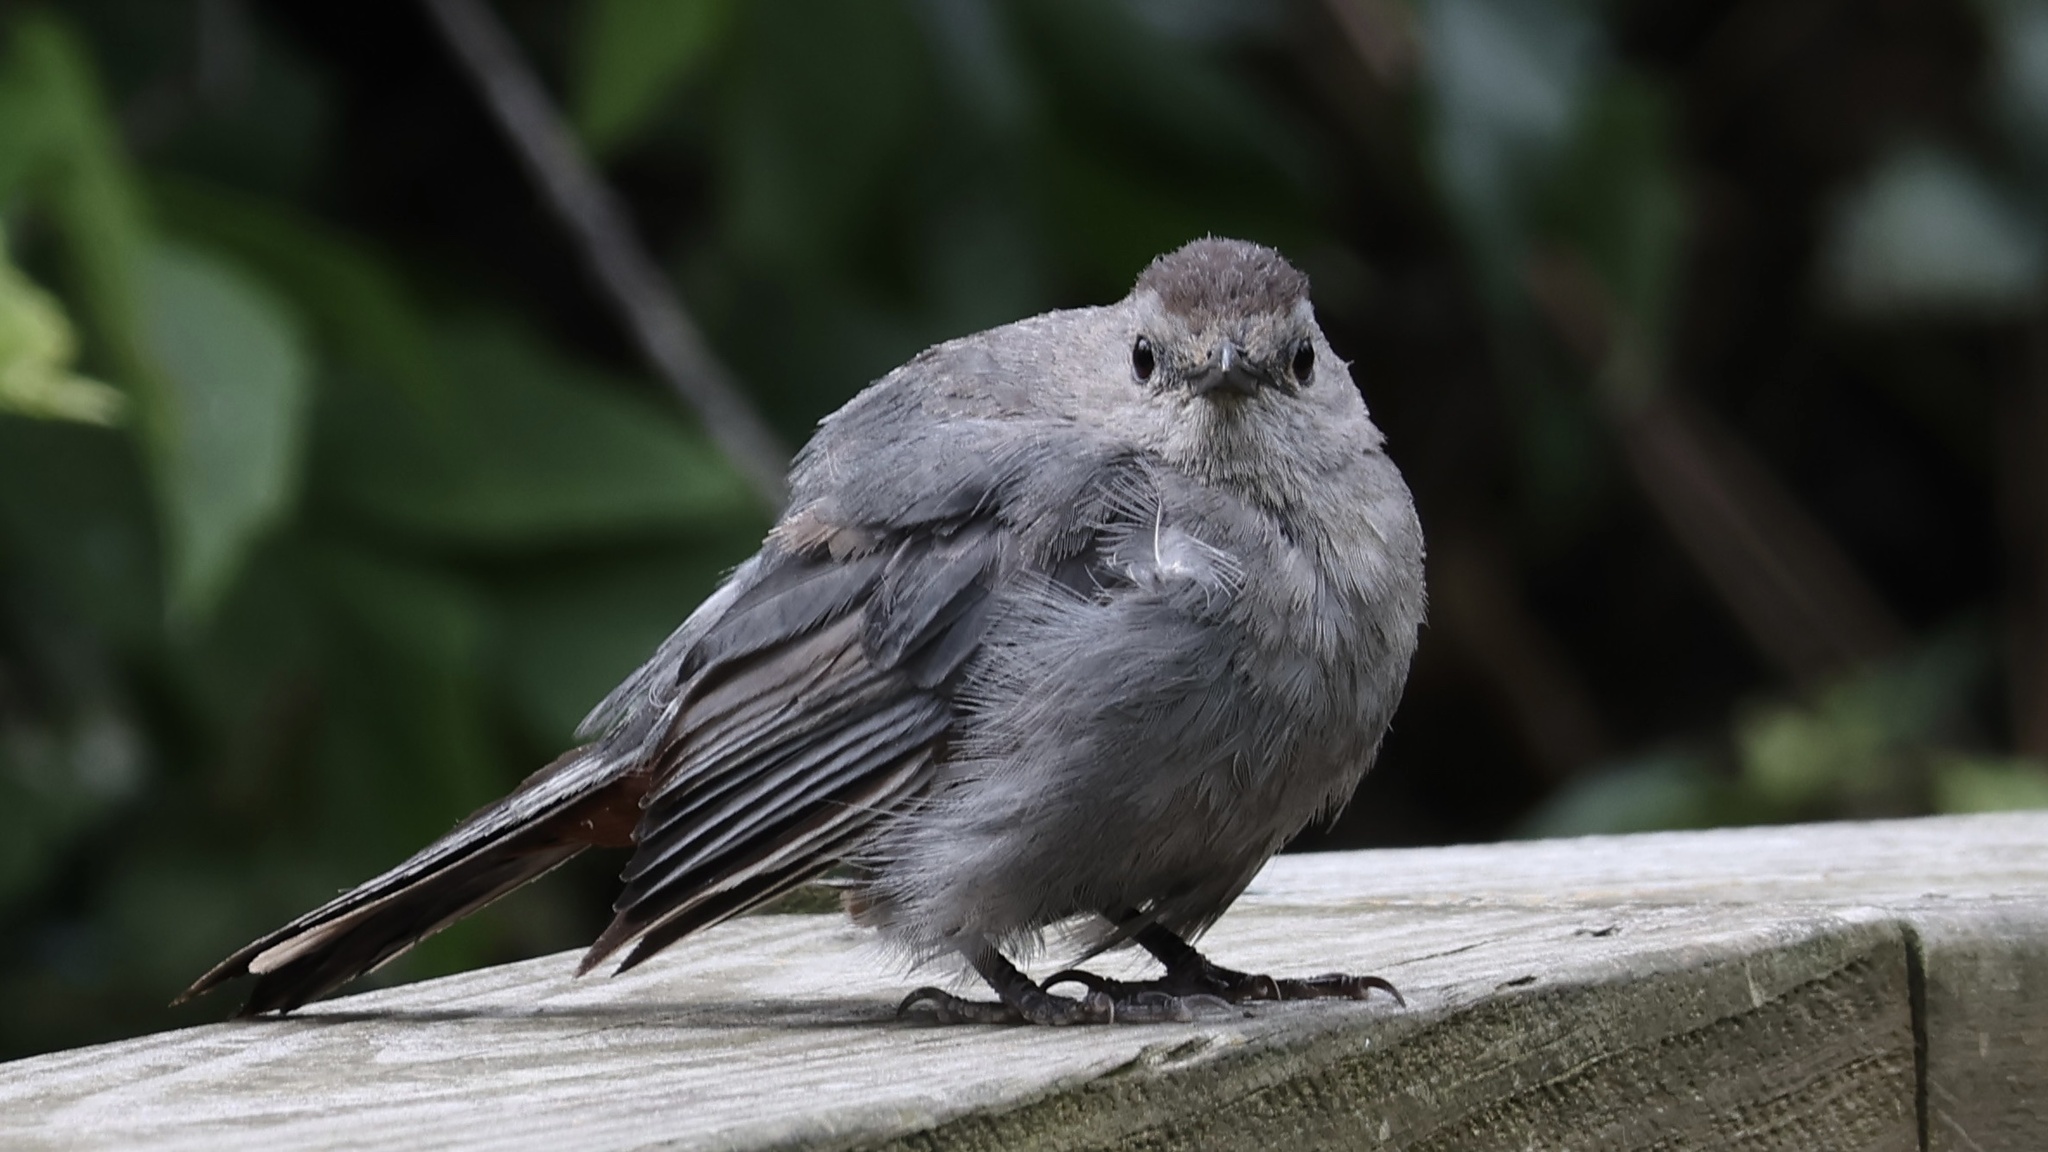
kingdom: Animalia
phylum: Chordata
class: Aves
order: Passeriformes
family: Mimidae
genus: Dumetella
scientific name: Dumetella carolinensis
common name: Gray catbird
